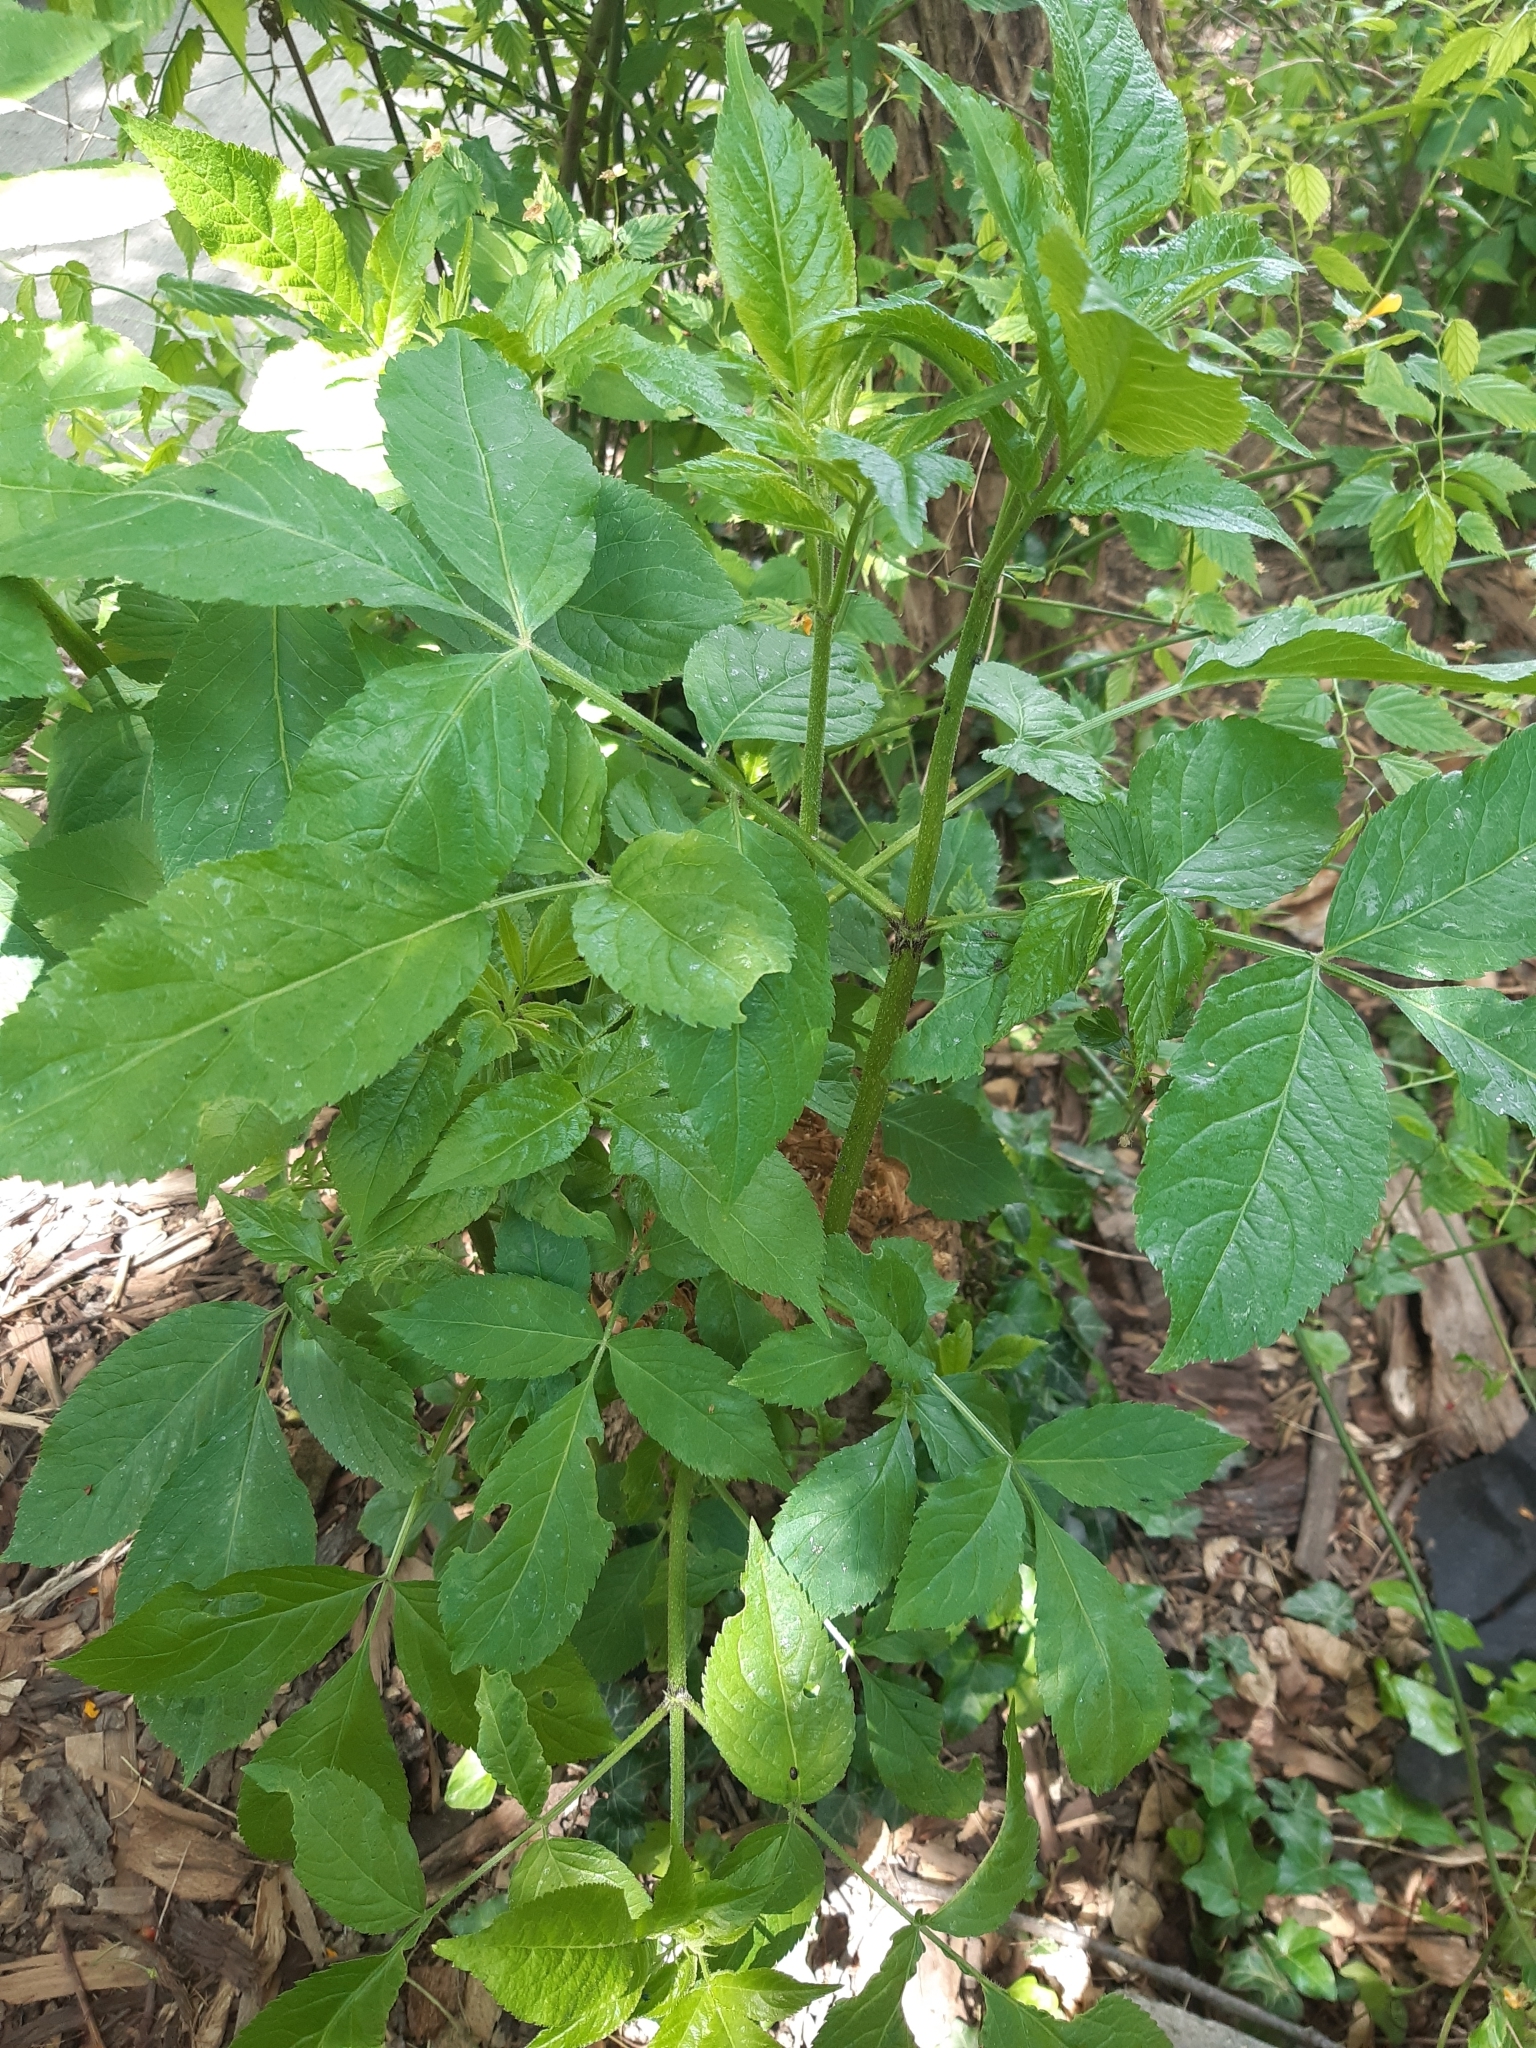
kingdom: Plantae
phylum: Tracheophyta
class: Magnoliopsida
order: Dipsacales
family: Viburnaceae
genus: Sambucus
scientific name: Sambucus nigra
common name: Elder
